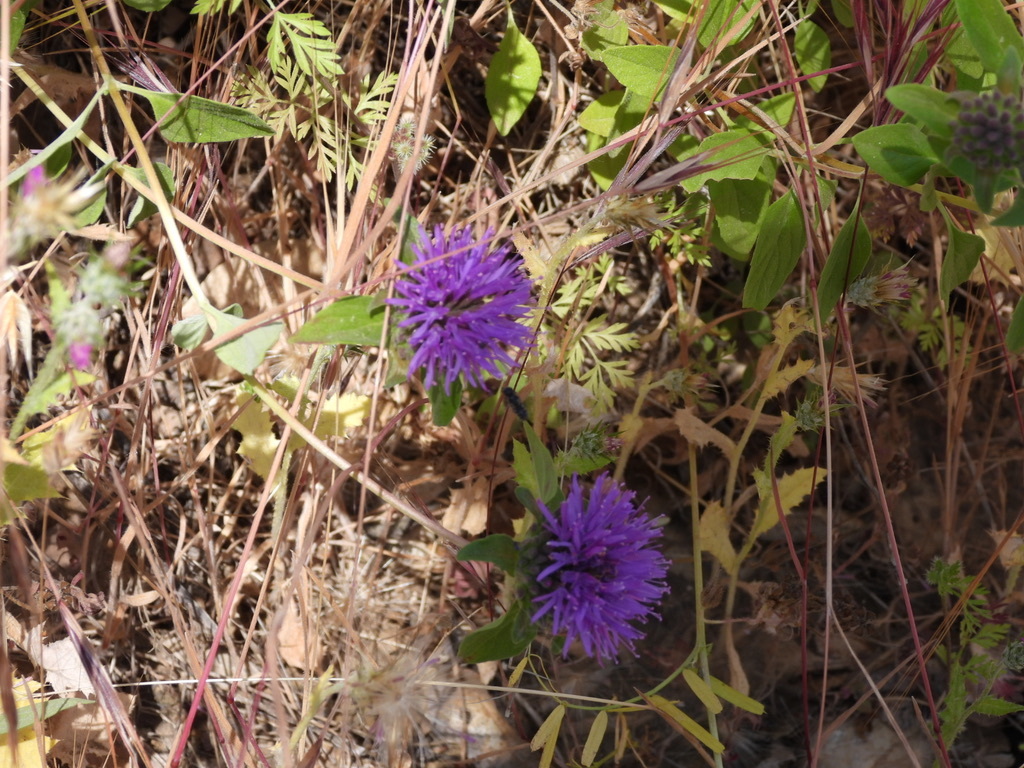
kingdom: Plantae
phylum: Tracheophyta
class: Magnoliopsida
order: Lamiales
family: Lamiaceae
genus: Monardella
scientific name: Monardella odoratissima
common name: Pacific monardella
